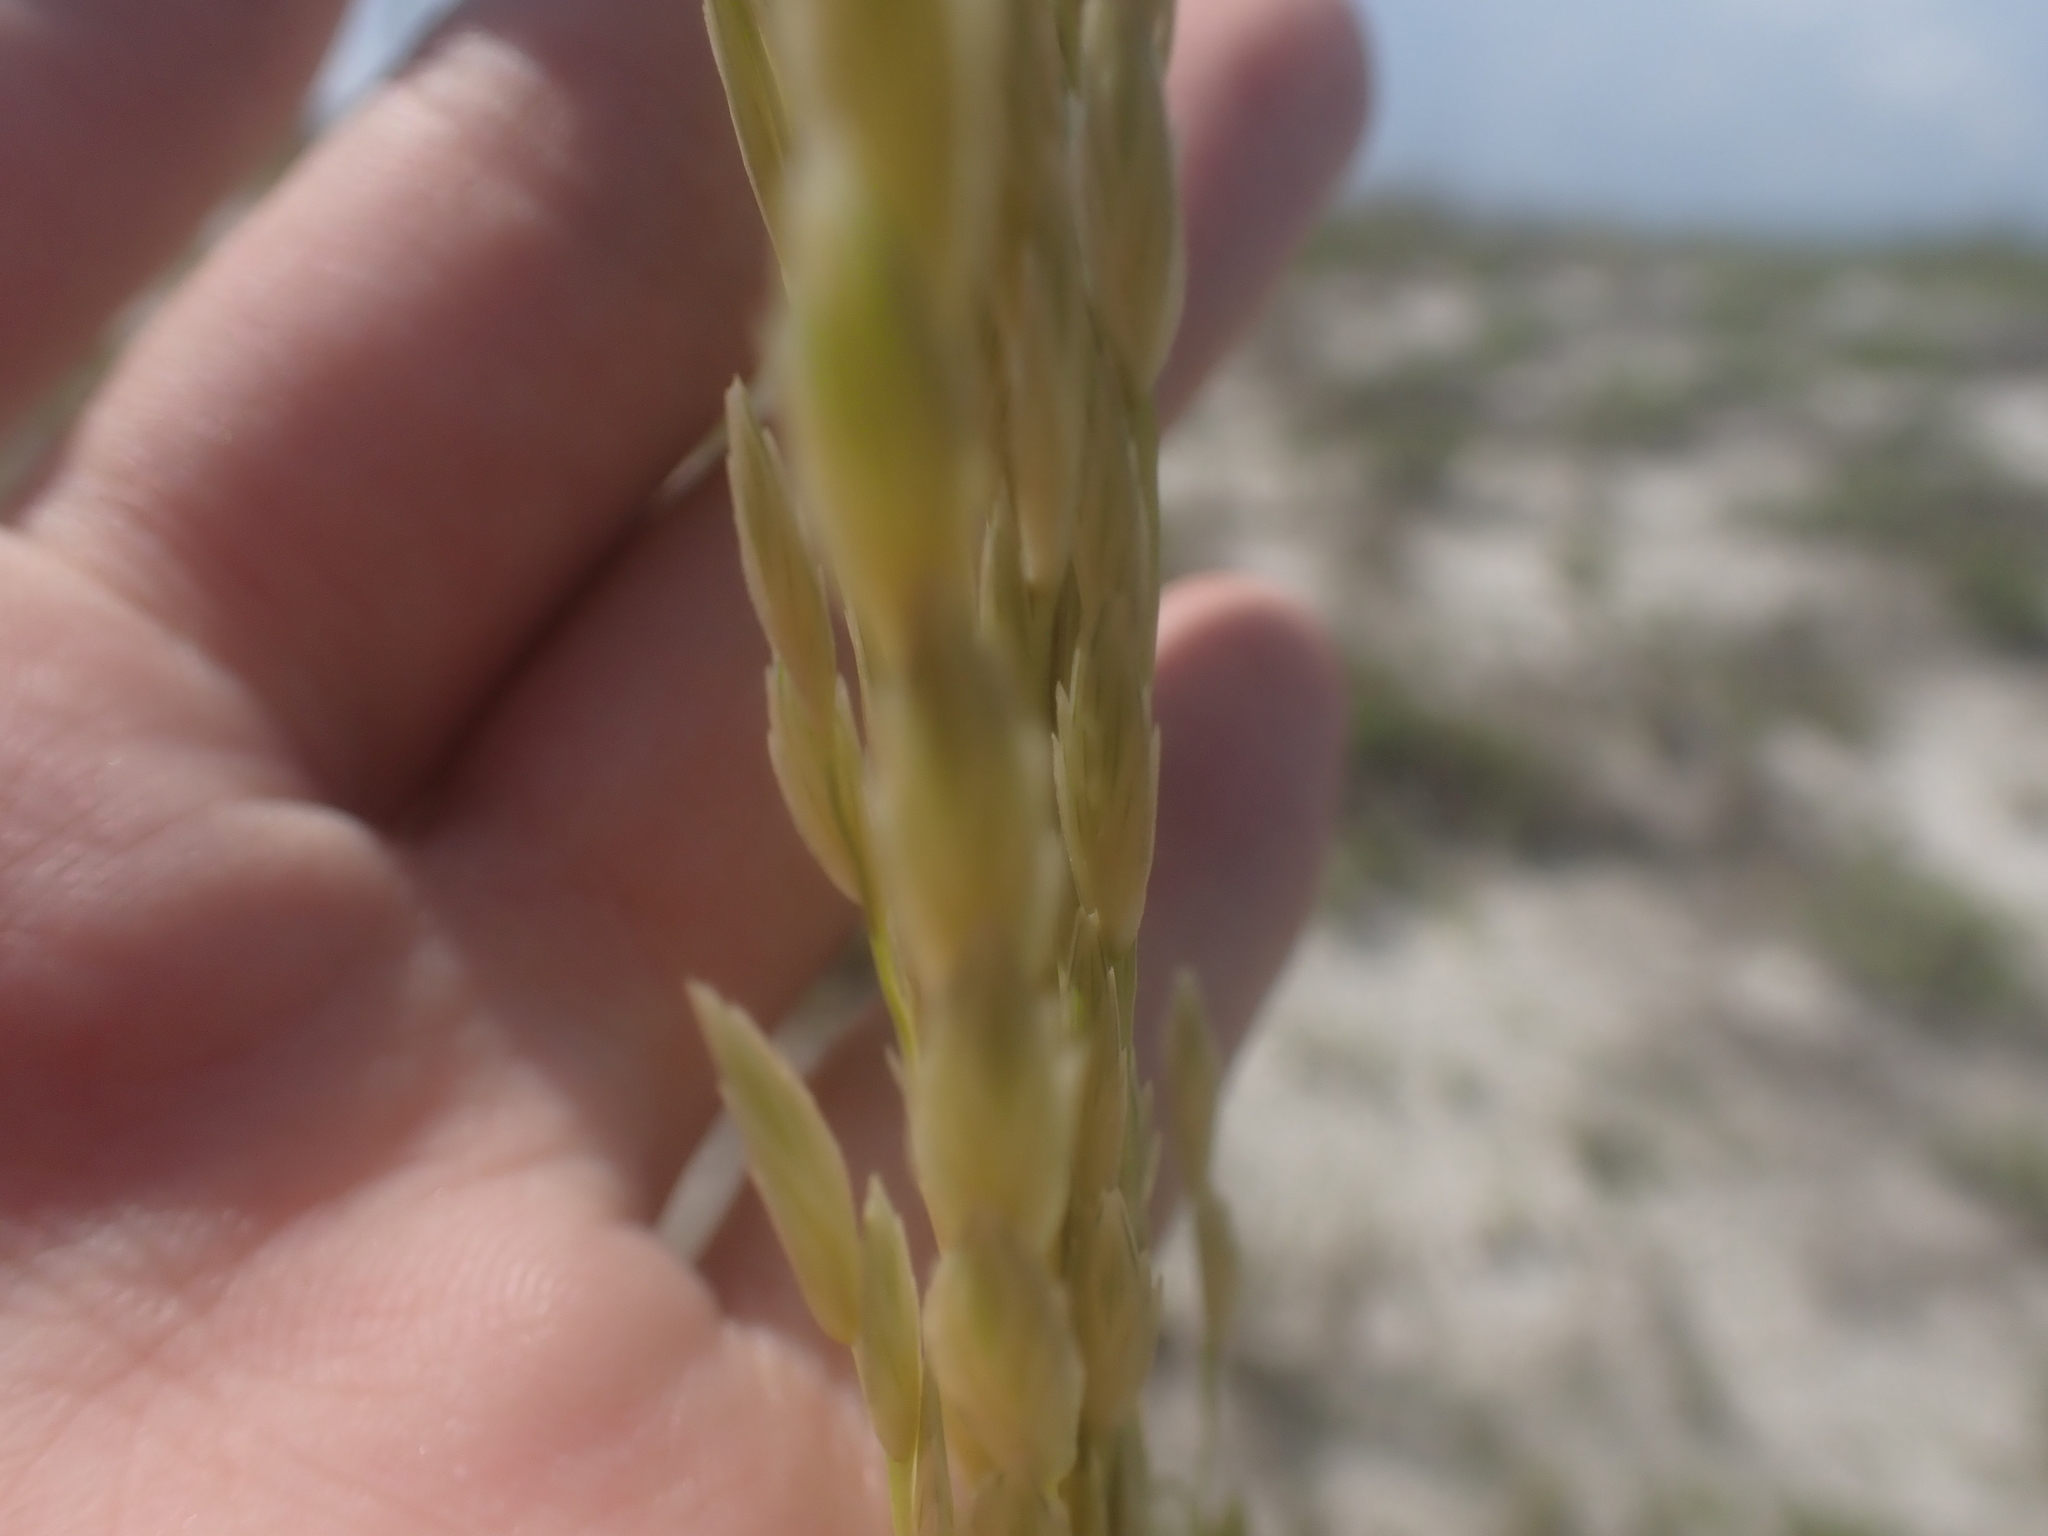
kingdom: Plantae
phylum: Tracheophyta
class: Liliopsida
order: Poales
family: Poaceae
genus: Uniola
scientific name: Uniola paniculata
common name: Seaside-oats
